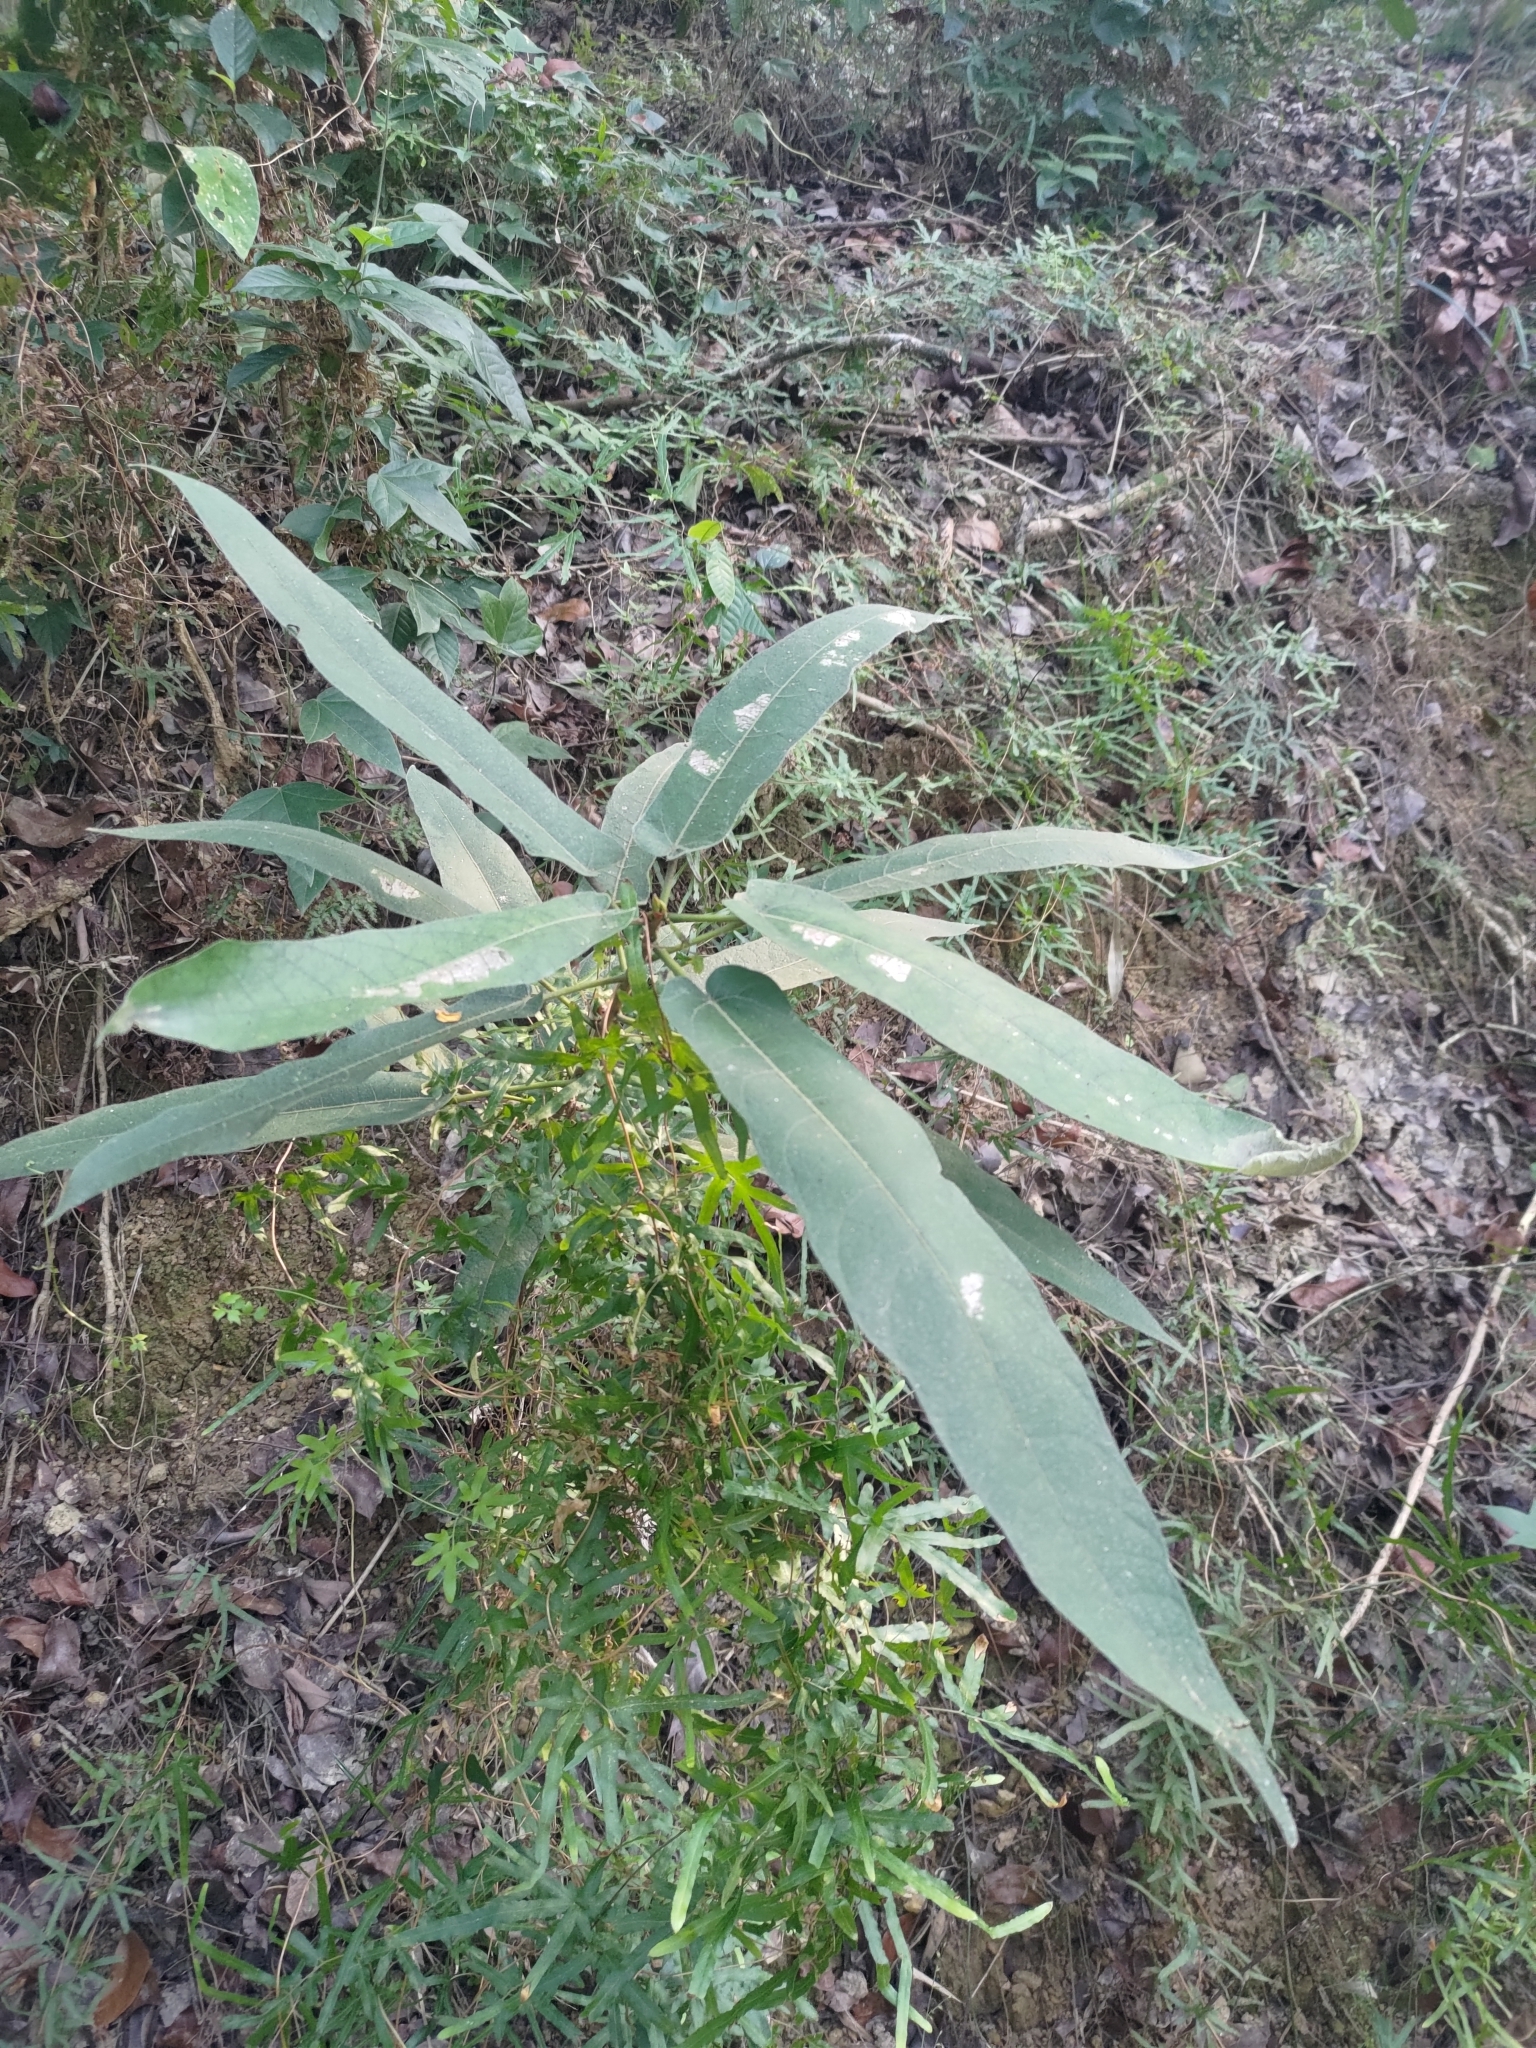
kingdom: Plantae
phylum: Tracheophyta
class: Magnoliopsida
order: Rosales
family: Moraceae
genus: Ficus
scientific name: Ficus erecta
